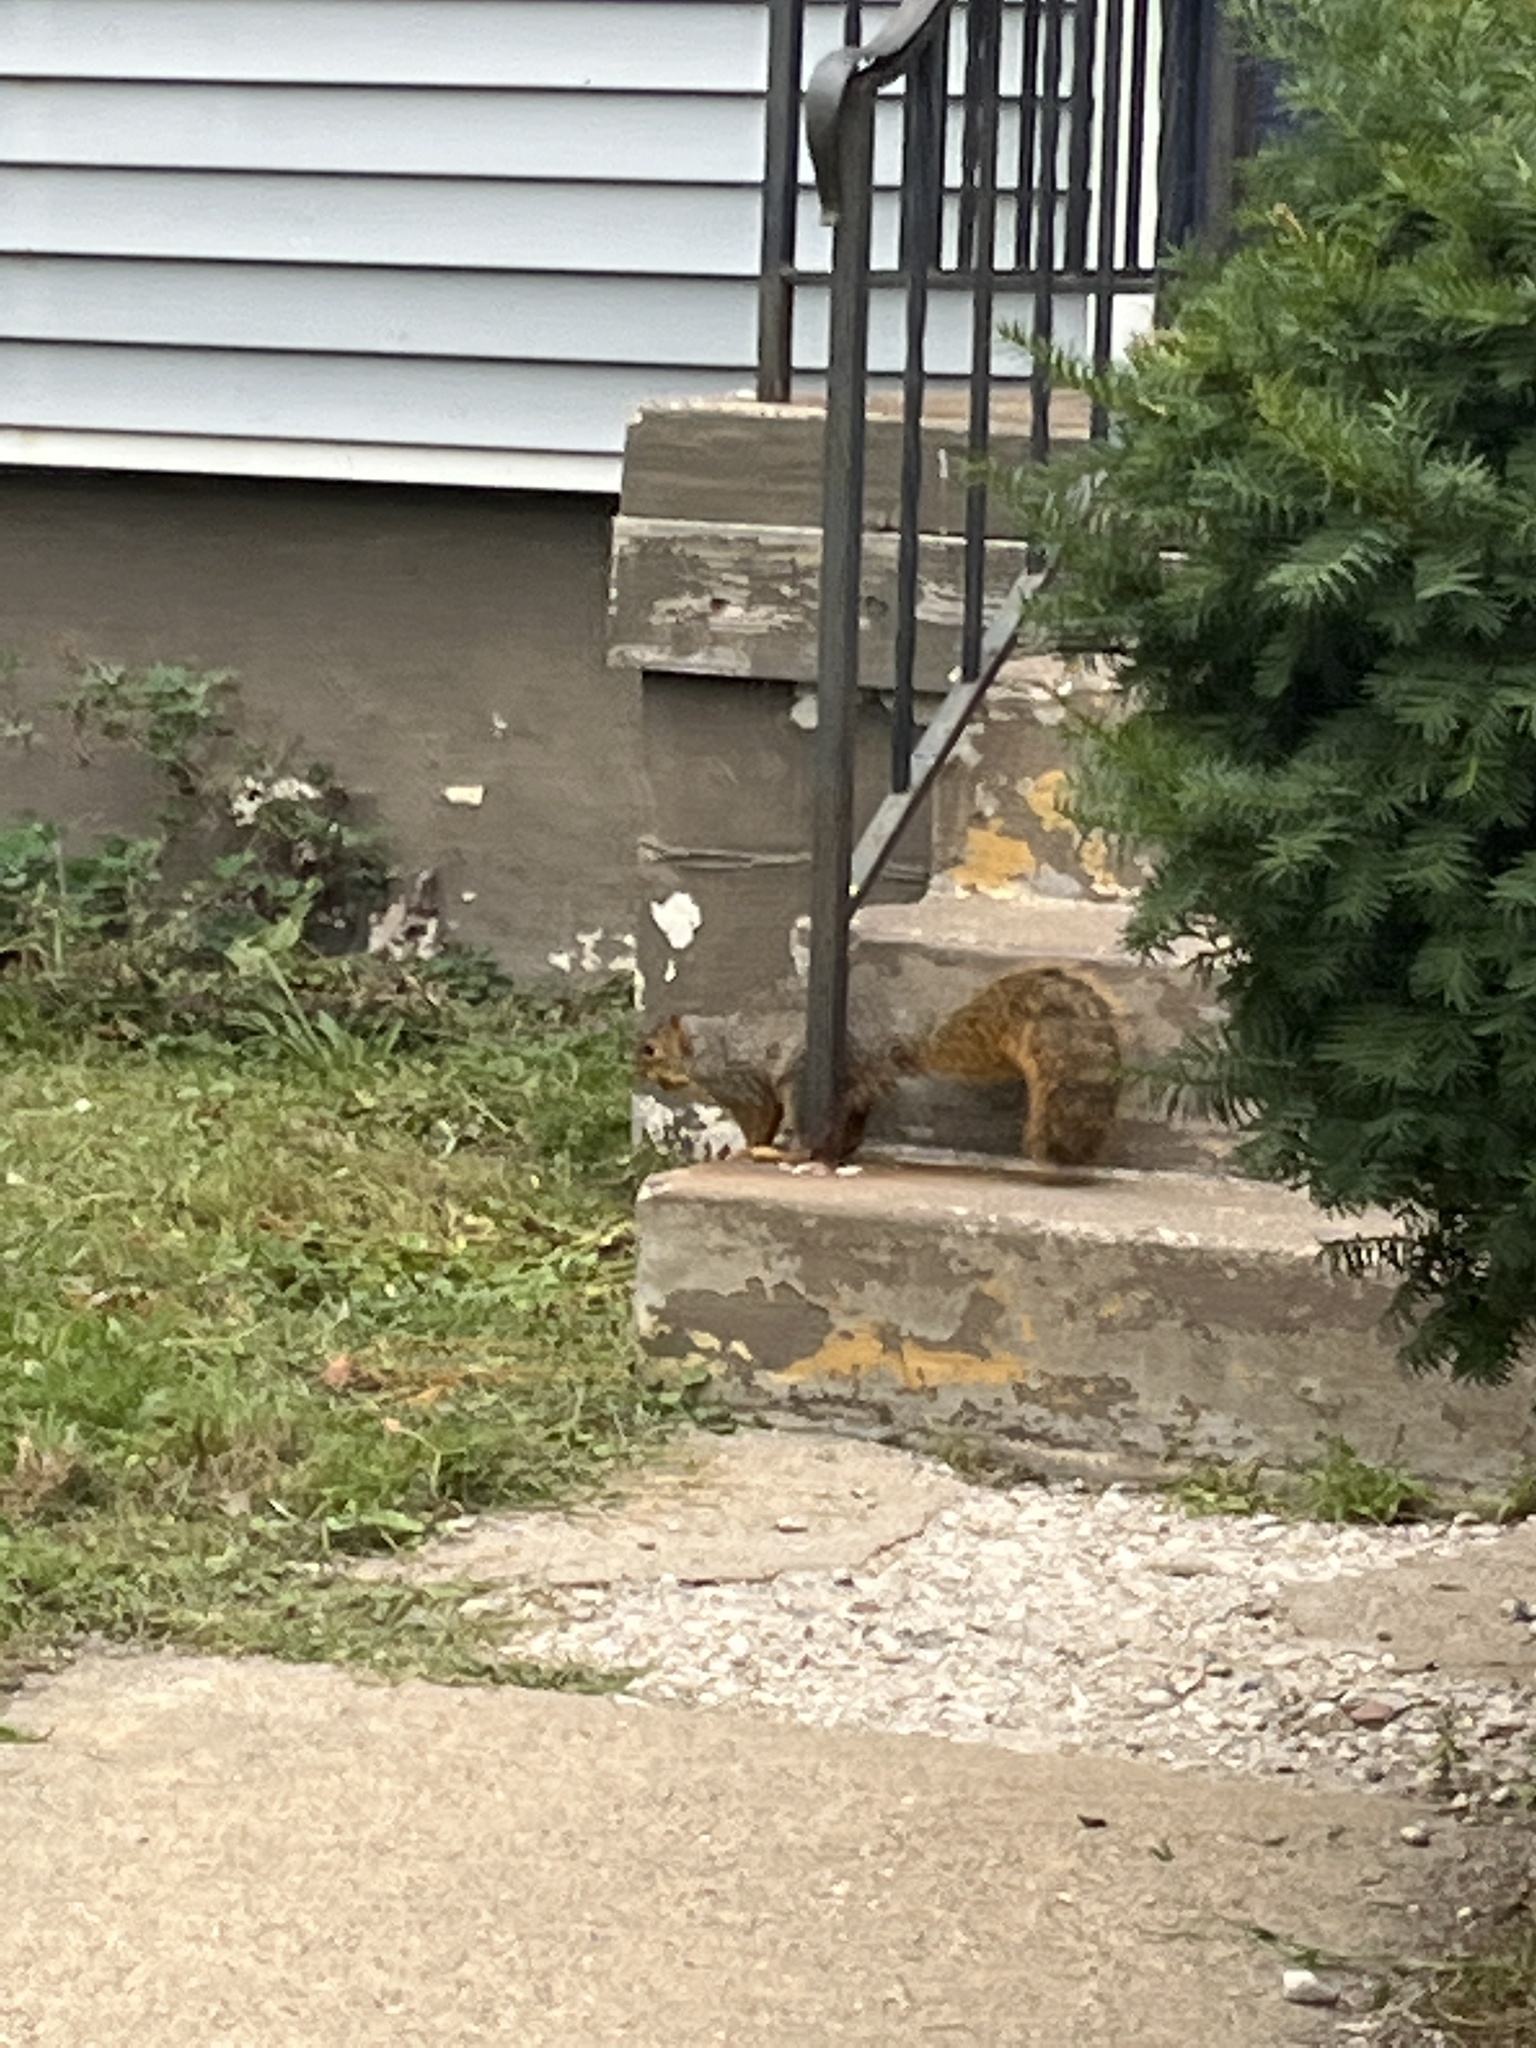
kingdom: Animalia
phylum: Chordata
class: Mammalia
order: Rodentia
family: Sciuridae
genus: Sciurus
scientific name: Sciurus niger
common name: Fox squirrel
